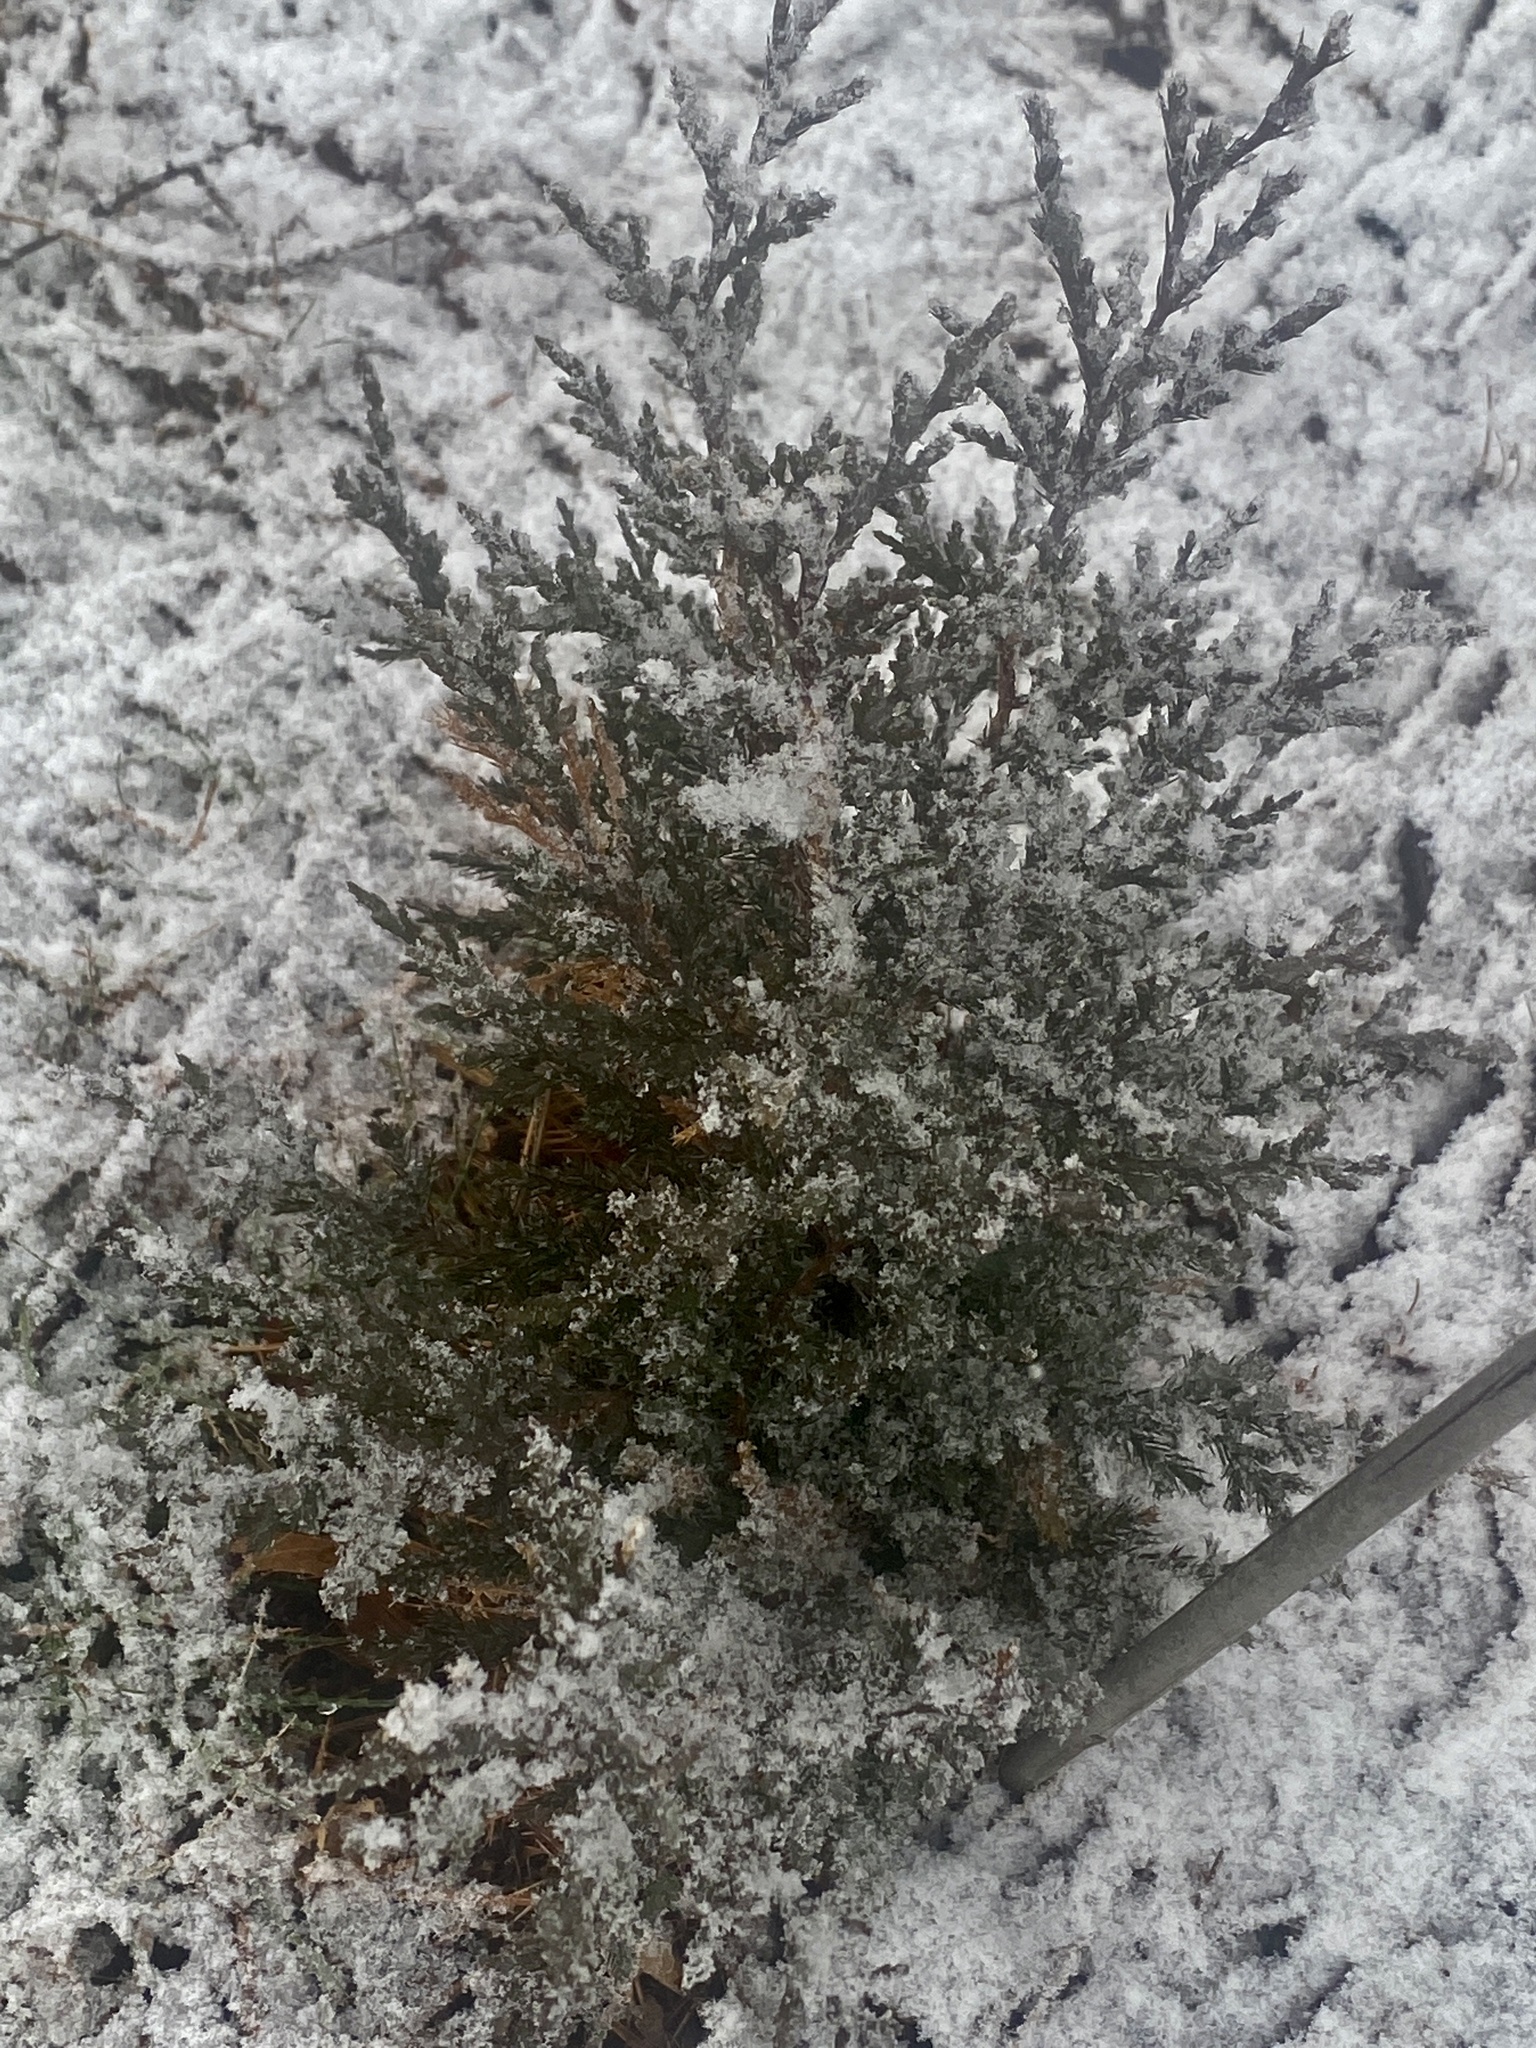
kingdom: Plantae
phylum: Tracheophyta
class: Pinopsida
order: Pinales
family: Cupressaceae
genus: Juniperus
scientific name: Juniperus virginiana
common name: Red juniper
